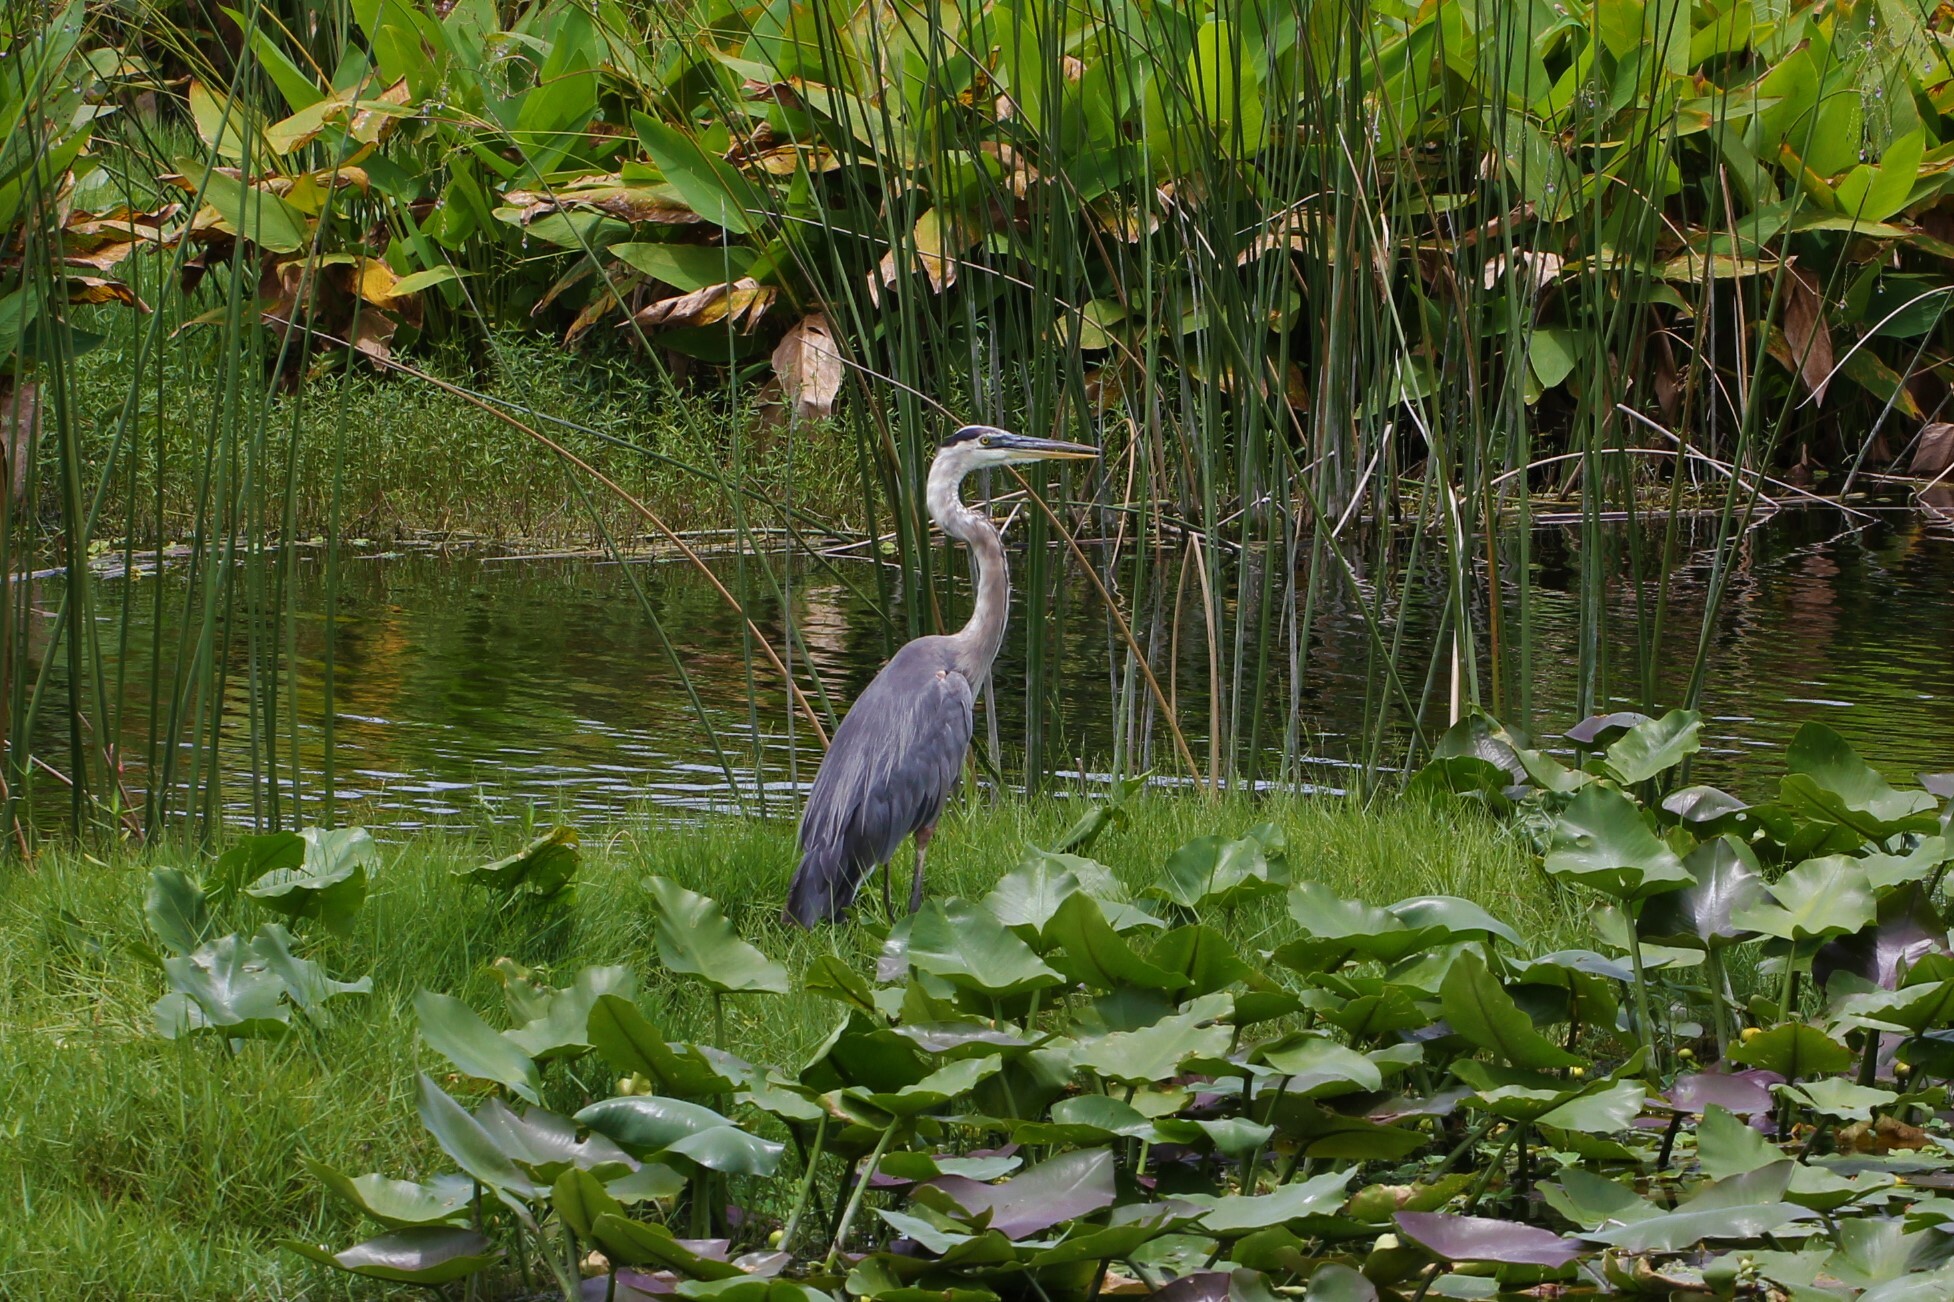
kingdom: Animalia
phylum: Chordata
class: Aves
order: Pelecaniformes
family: Ardeidae
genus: Ardea
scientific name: Ardea herodias
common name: Great blue heron
